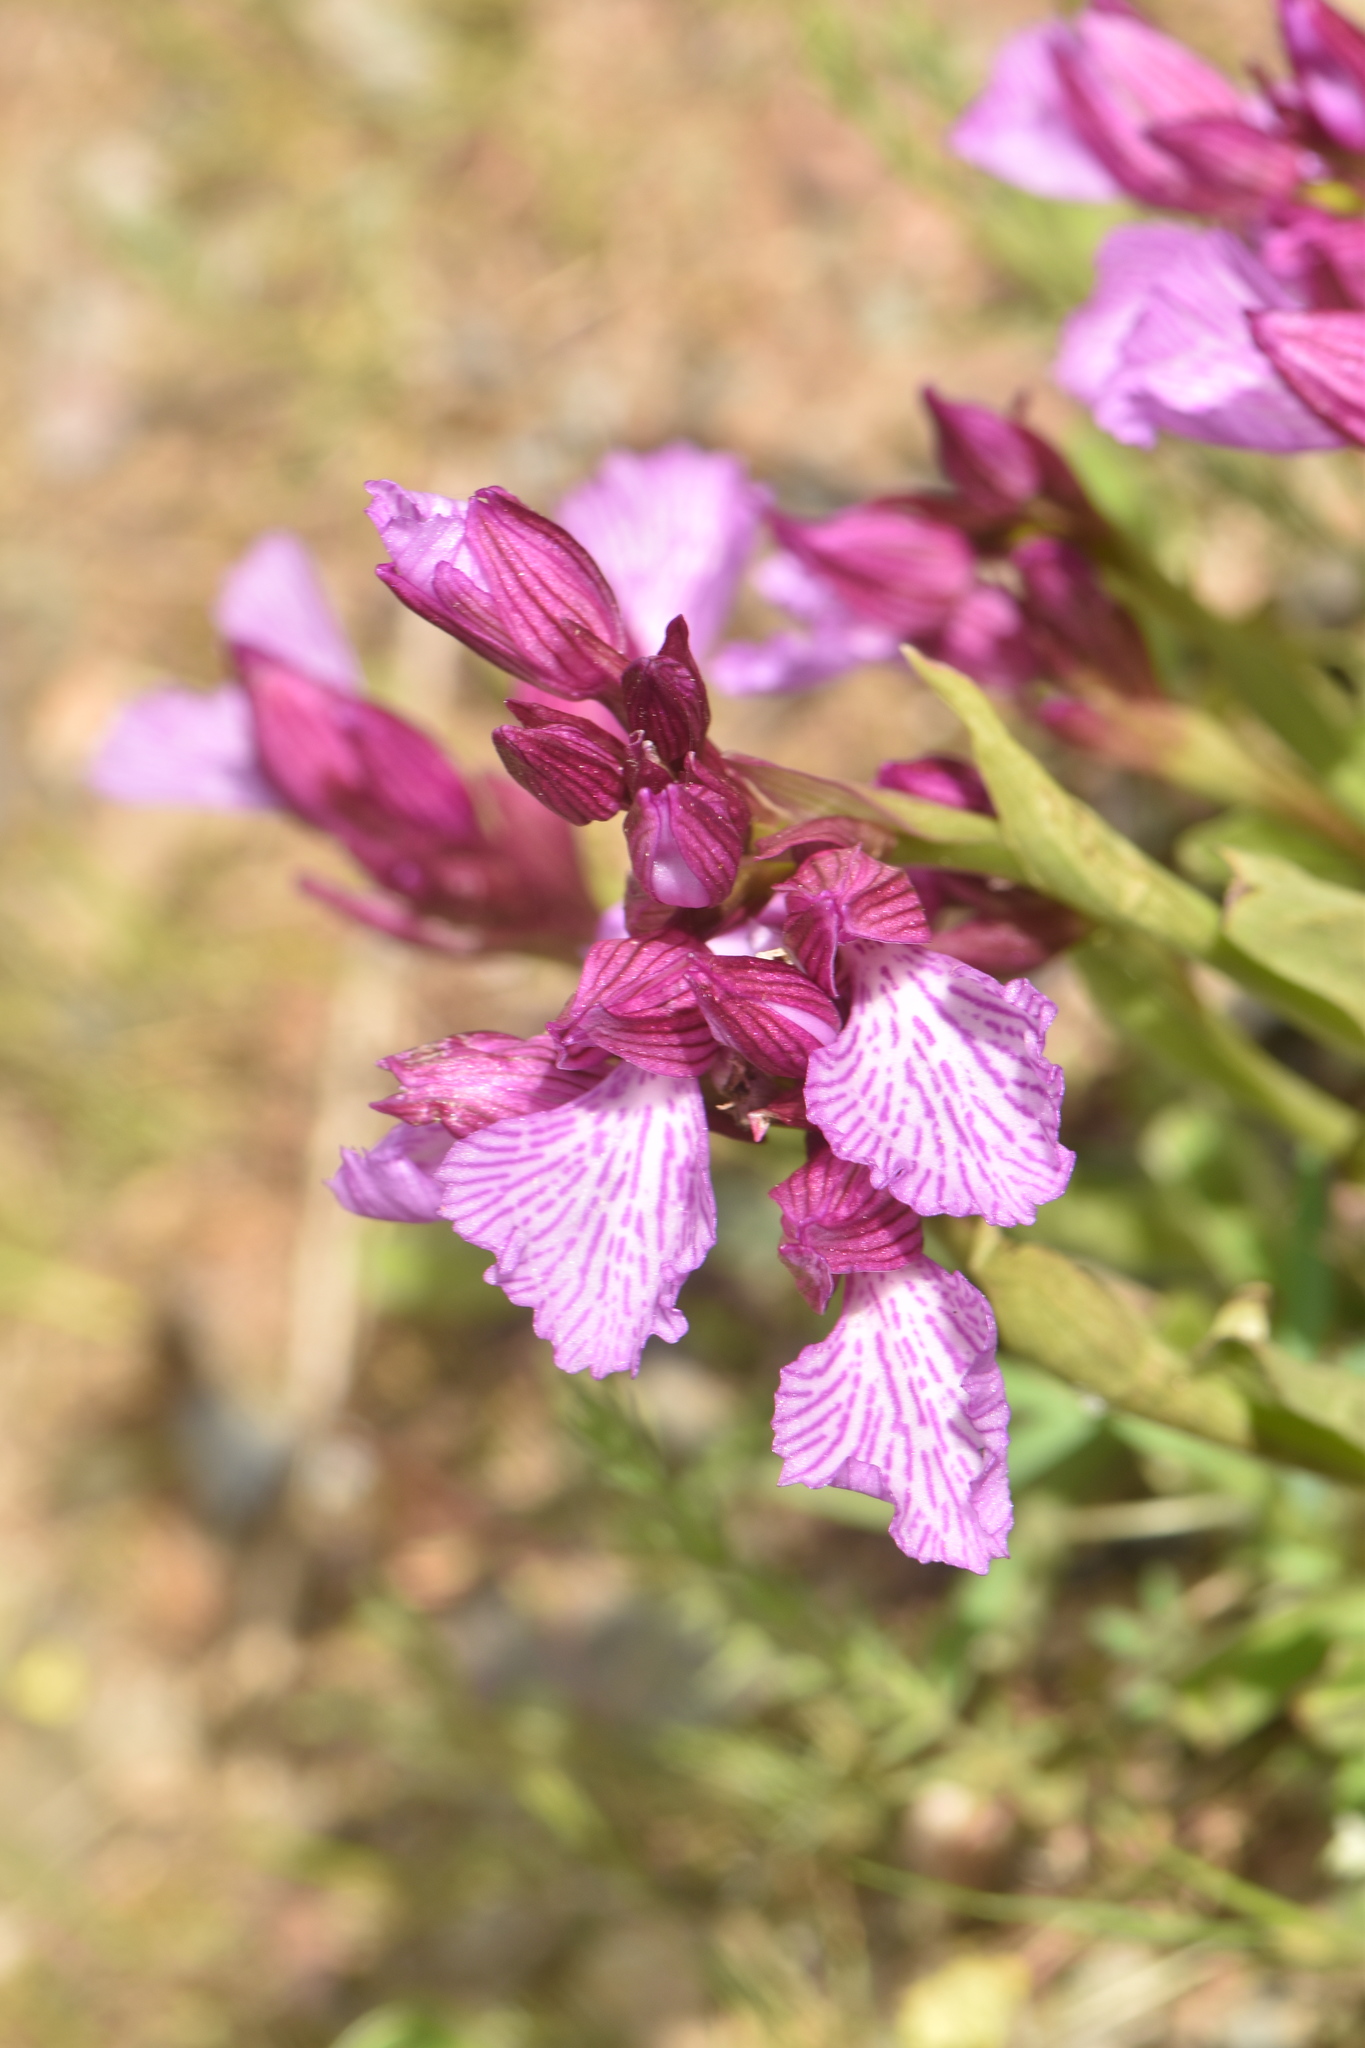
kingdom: Plantae
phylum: Tracheophyta
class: Liliopsida
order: Asparagales
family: Orchidaceae
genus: Anacamptis
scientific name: Anacamptis papilionacea
